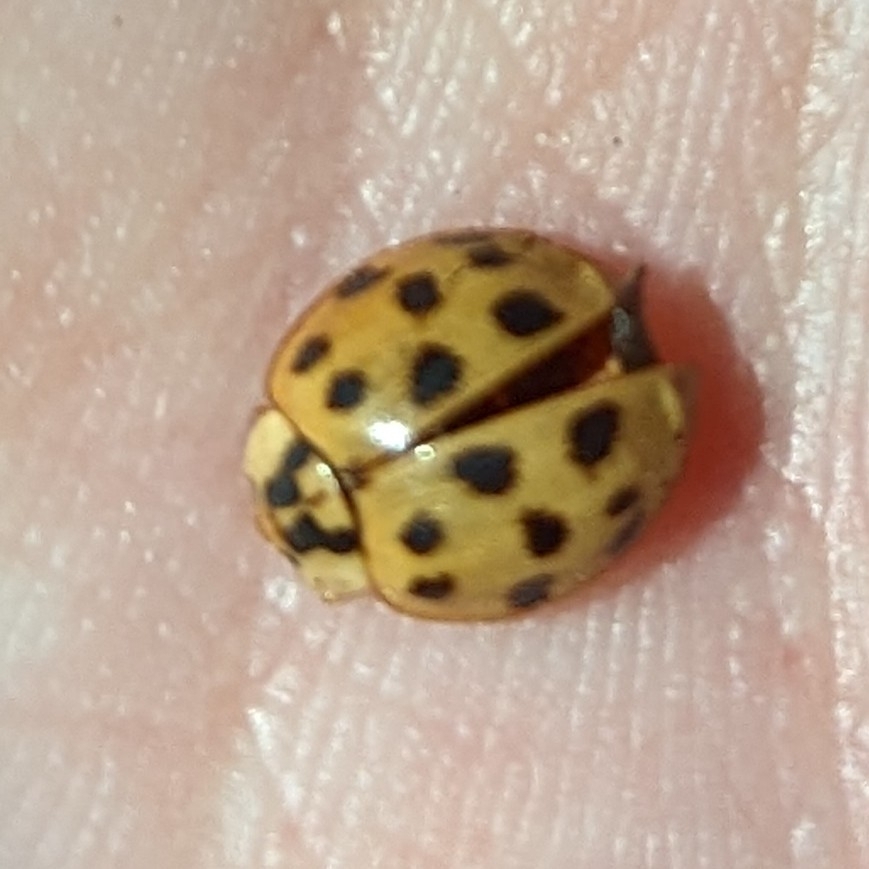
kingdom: Animalia
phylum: Arthropoda
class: Insecta
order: Coleoptera
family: Coccinellidae
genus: Harmonia
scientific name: Harmonia axyridis
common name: Harlequin ladybird
